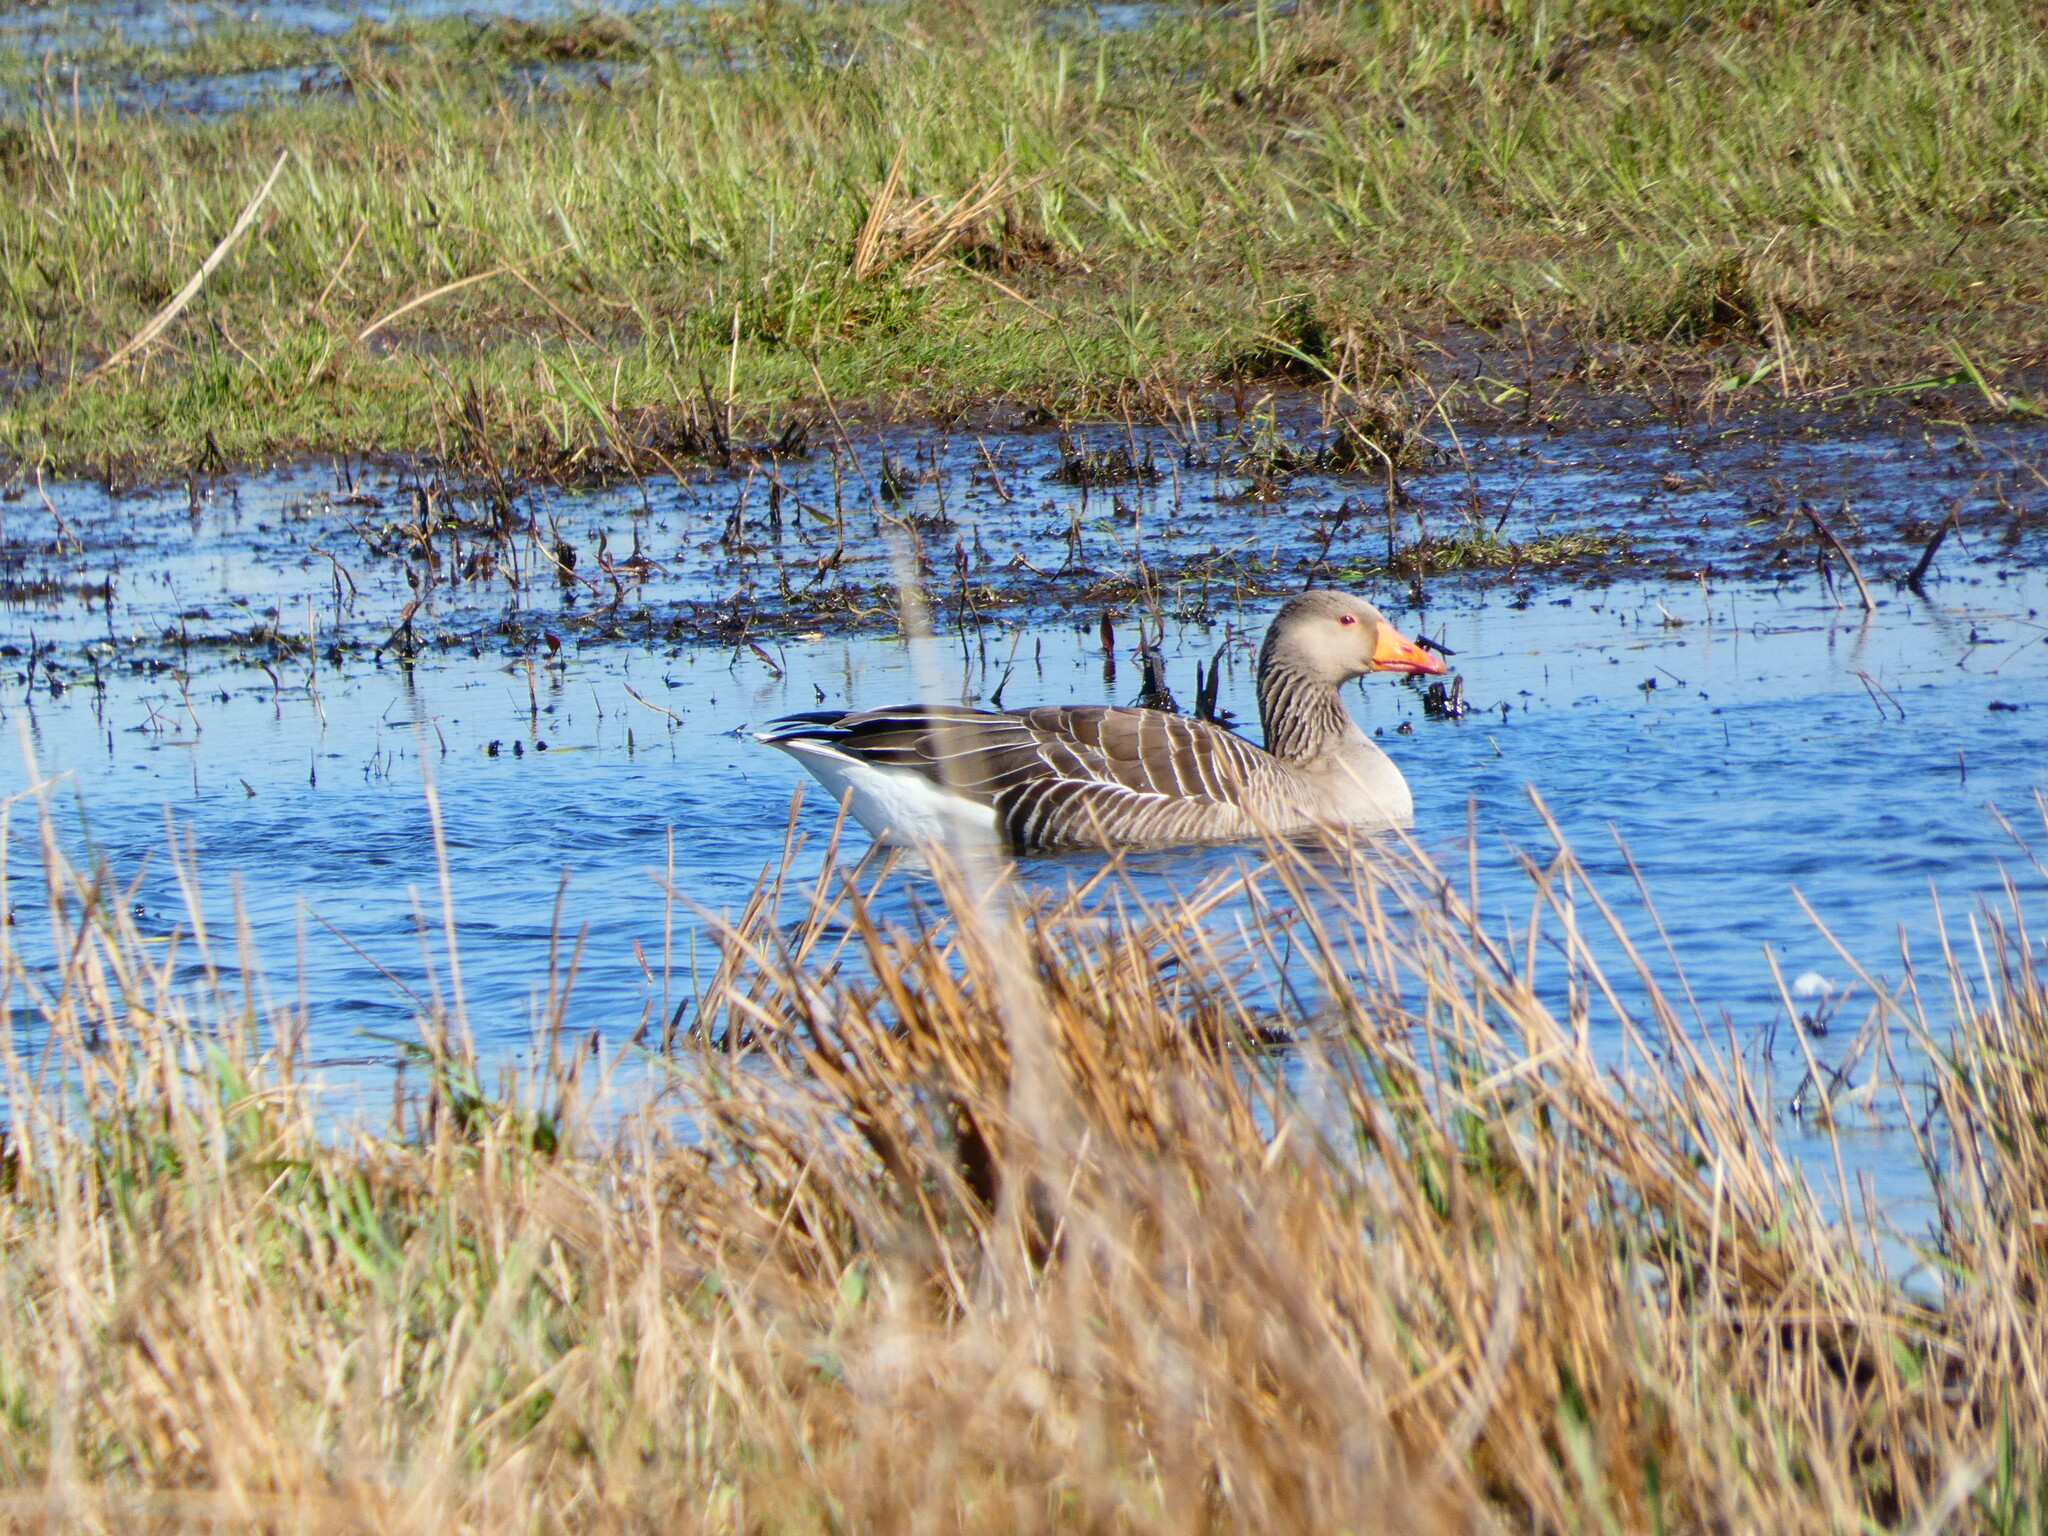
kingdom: Animalia
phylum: Chordata
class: Aves
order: Anseriformes
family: Anatidae
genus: Anser
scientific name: Anser anser
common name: Greylag goose
